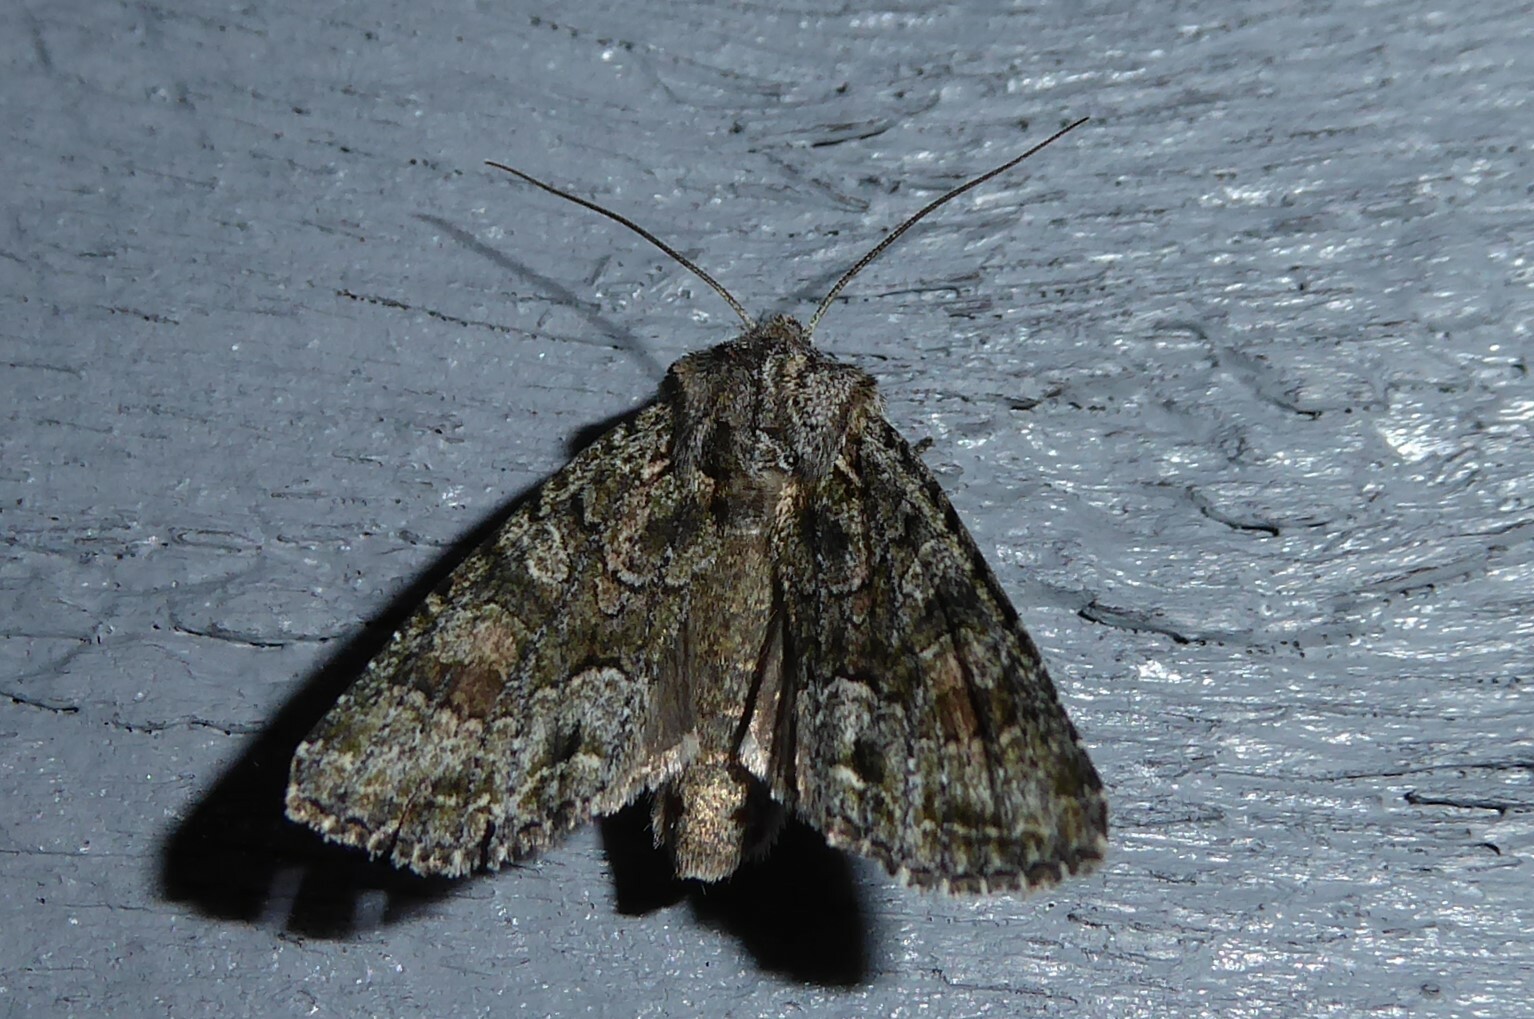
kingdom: Animalia
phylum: Arthropoda
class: Insecta
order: Lepidoptera
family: Noctuidae
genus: Ichneutica
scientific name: Ichneutica mutans
